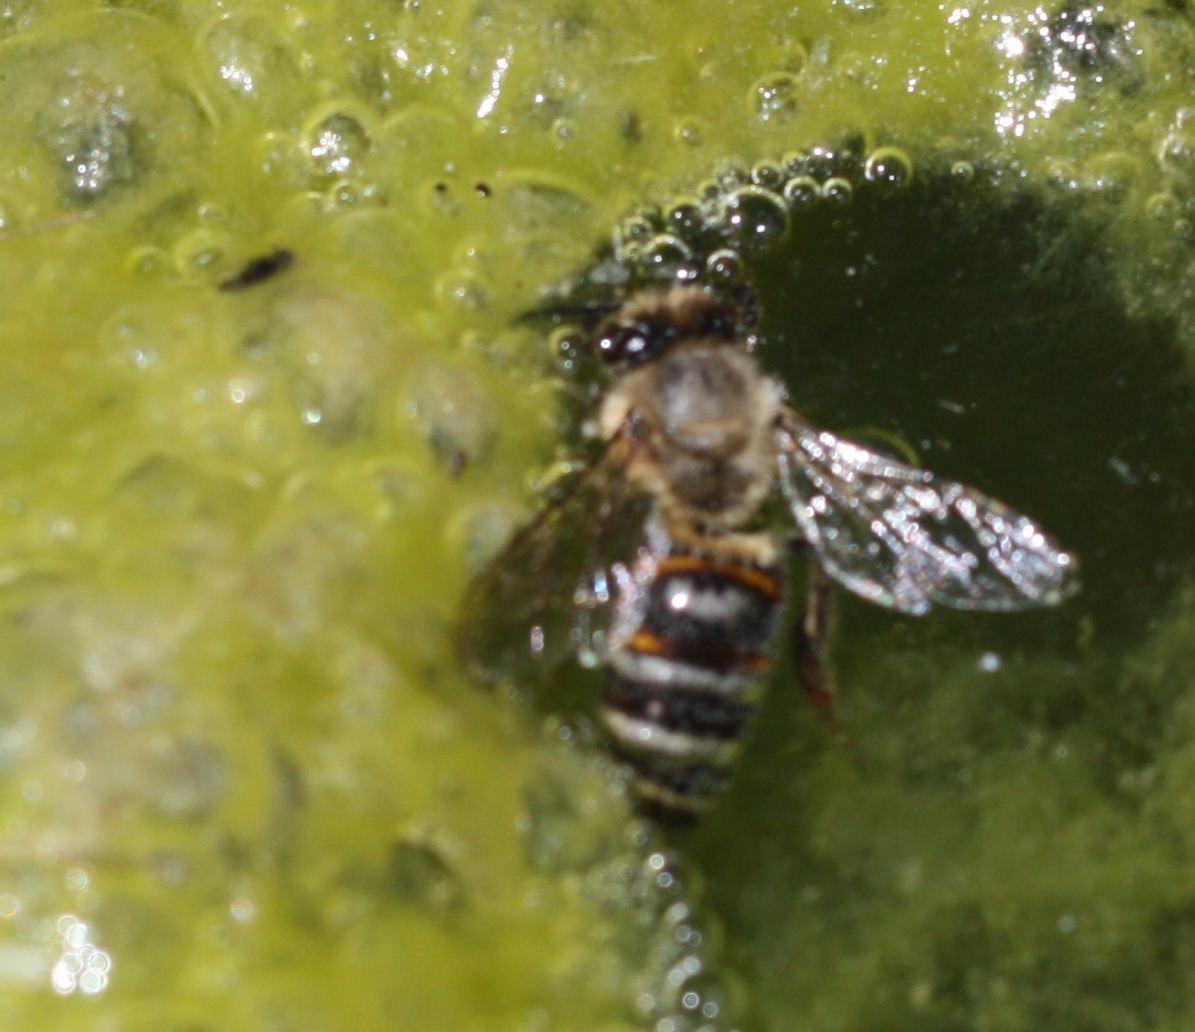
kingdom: Animalia
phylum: Arthropoda
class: Insecta
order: Hymenoptera
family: Apidae
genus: Apis
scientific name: Apis mellifera
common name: Honey bee
